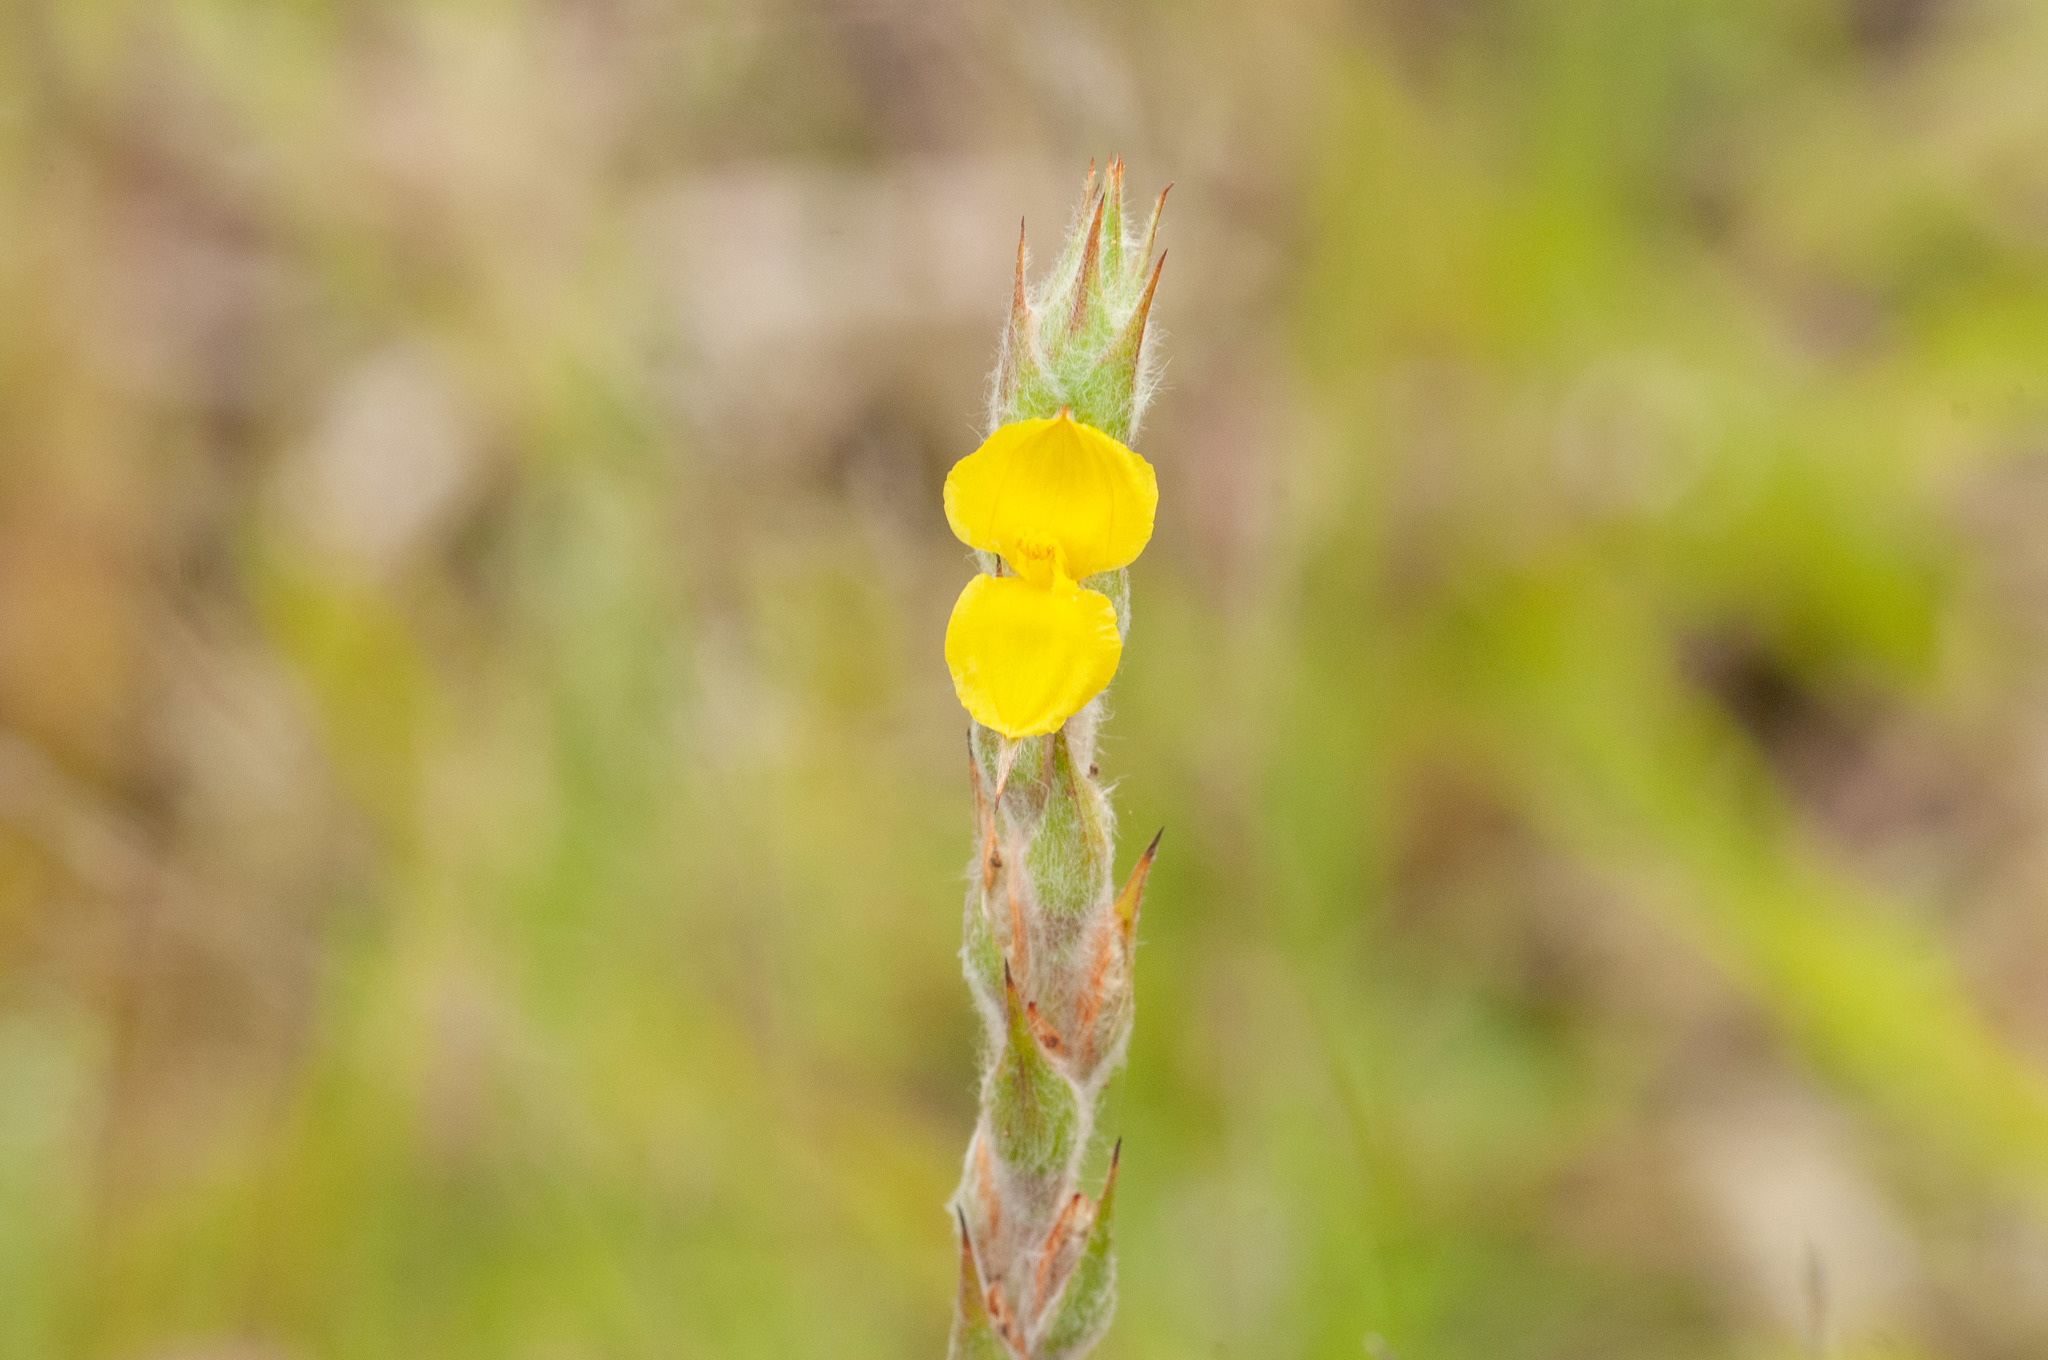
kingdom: Plantae
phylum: Tracheophyta
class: Liliopsida
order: Commelinales
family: Philydraceae
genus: Philydrum
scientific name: Philydrum lanuginosum
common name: Woolly frog's mouth
